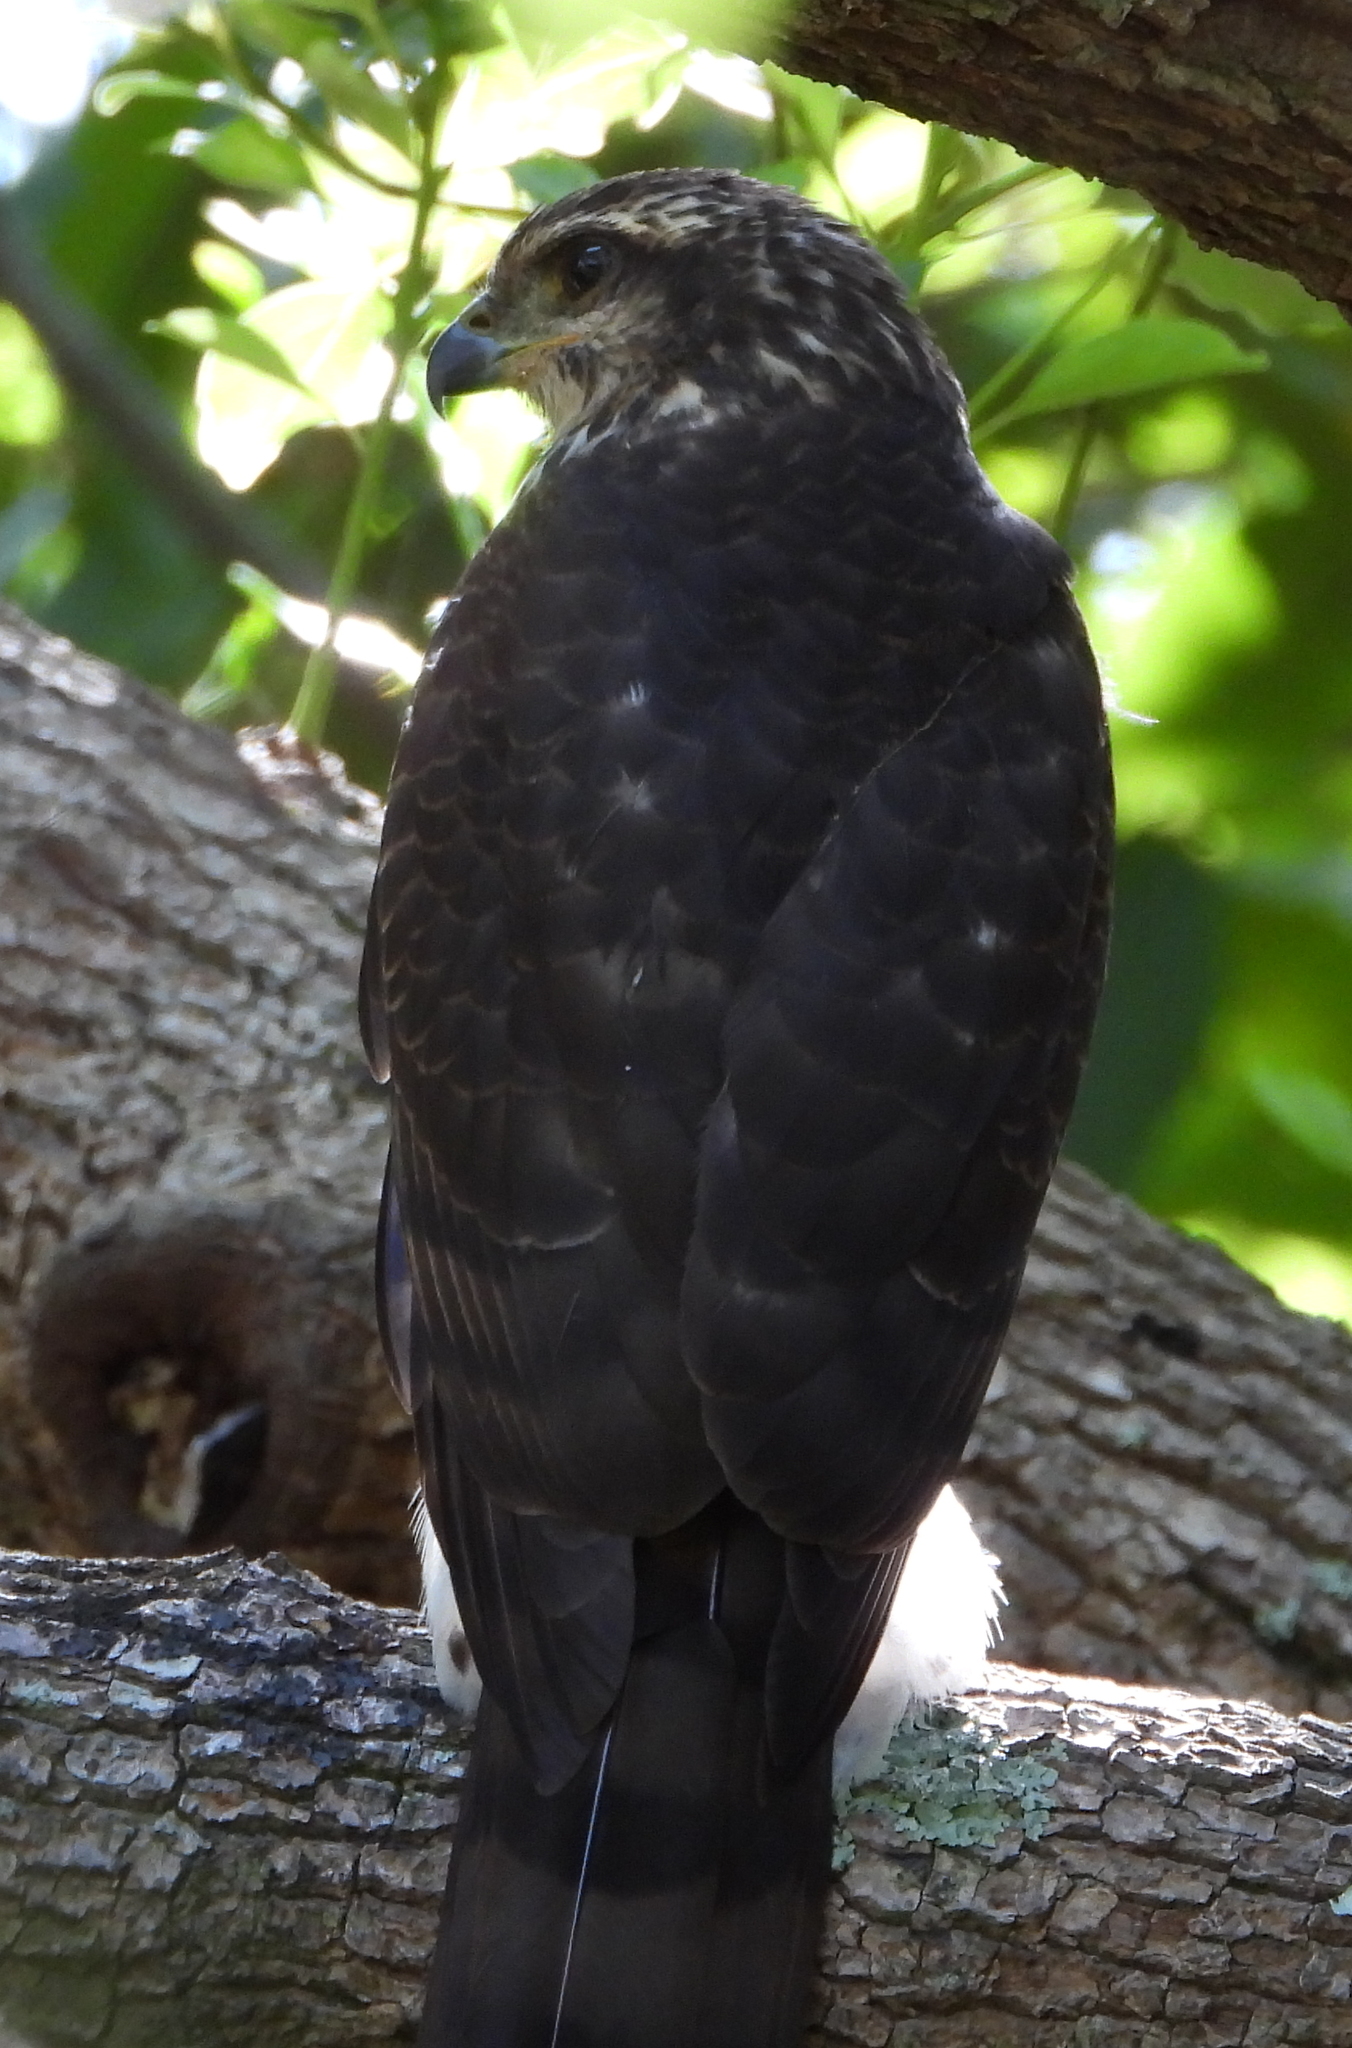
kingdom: Animalia
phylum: Chordata
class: Aves
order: Accipitriformes
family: Accipitridae
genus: Accipiter
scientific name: Accipiter tachiro
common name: African goshawk
